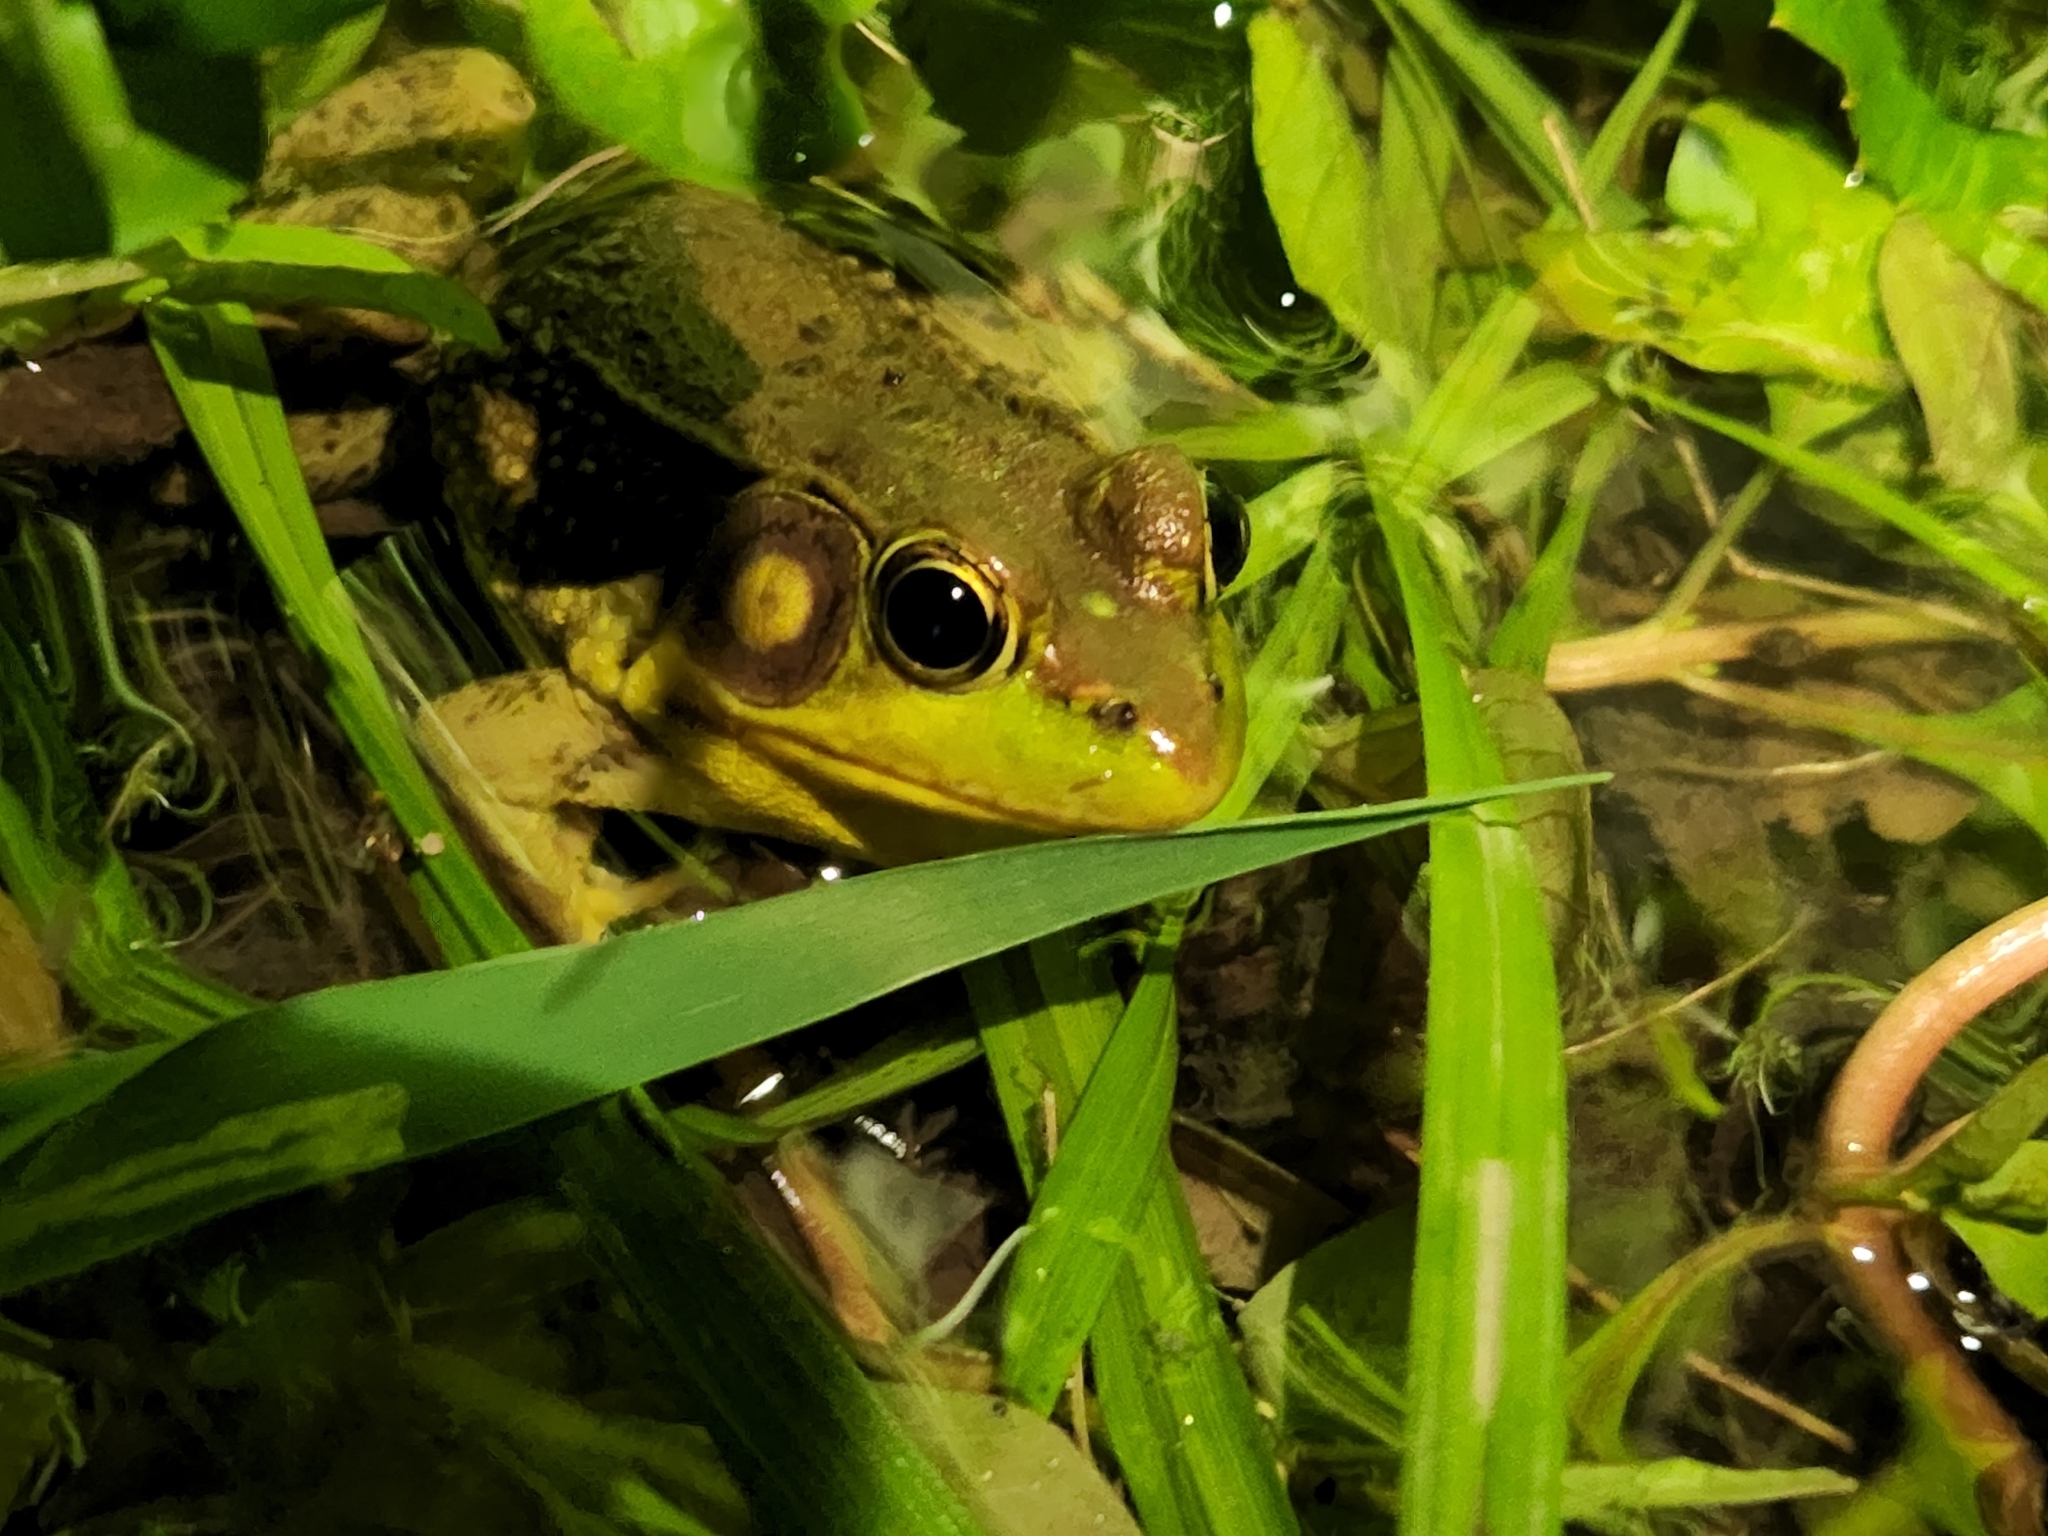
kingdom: Animalia
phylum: Chordata
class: Amphibia
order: Anura
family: Ranidae
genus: Lithobates
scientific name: Lithobates clamitans
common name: Green frog
